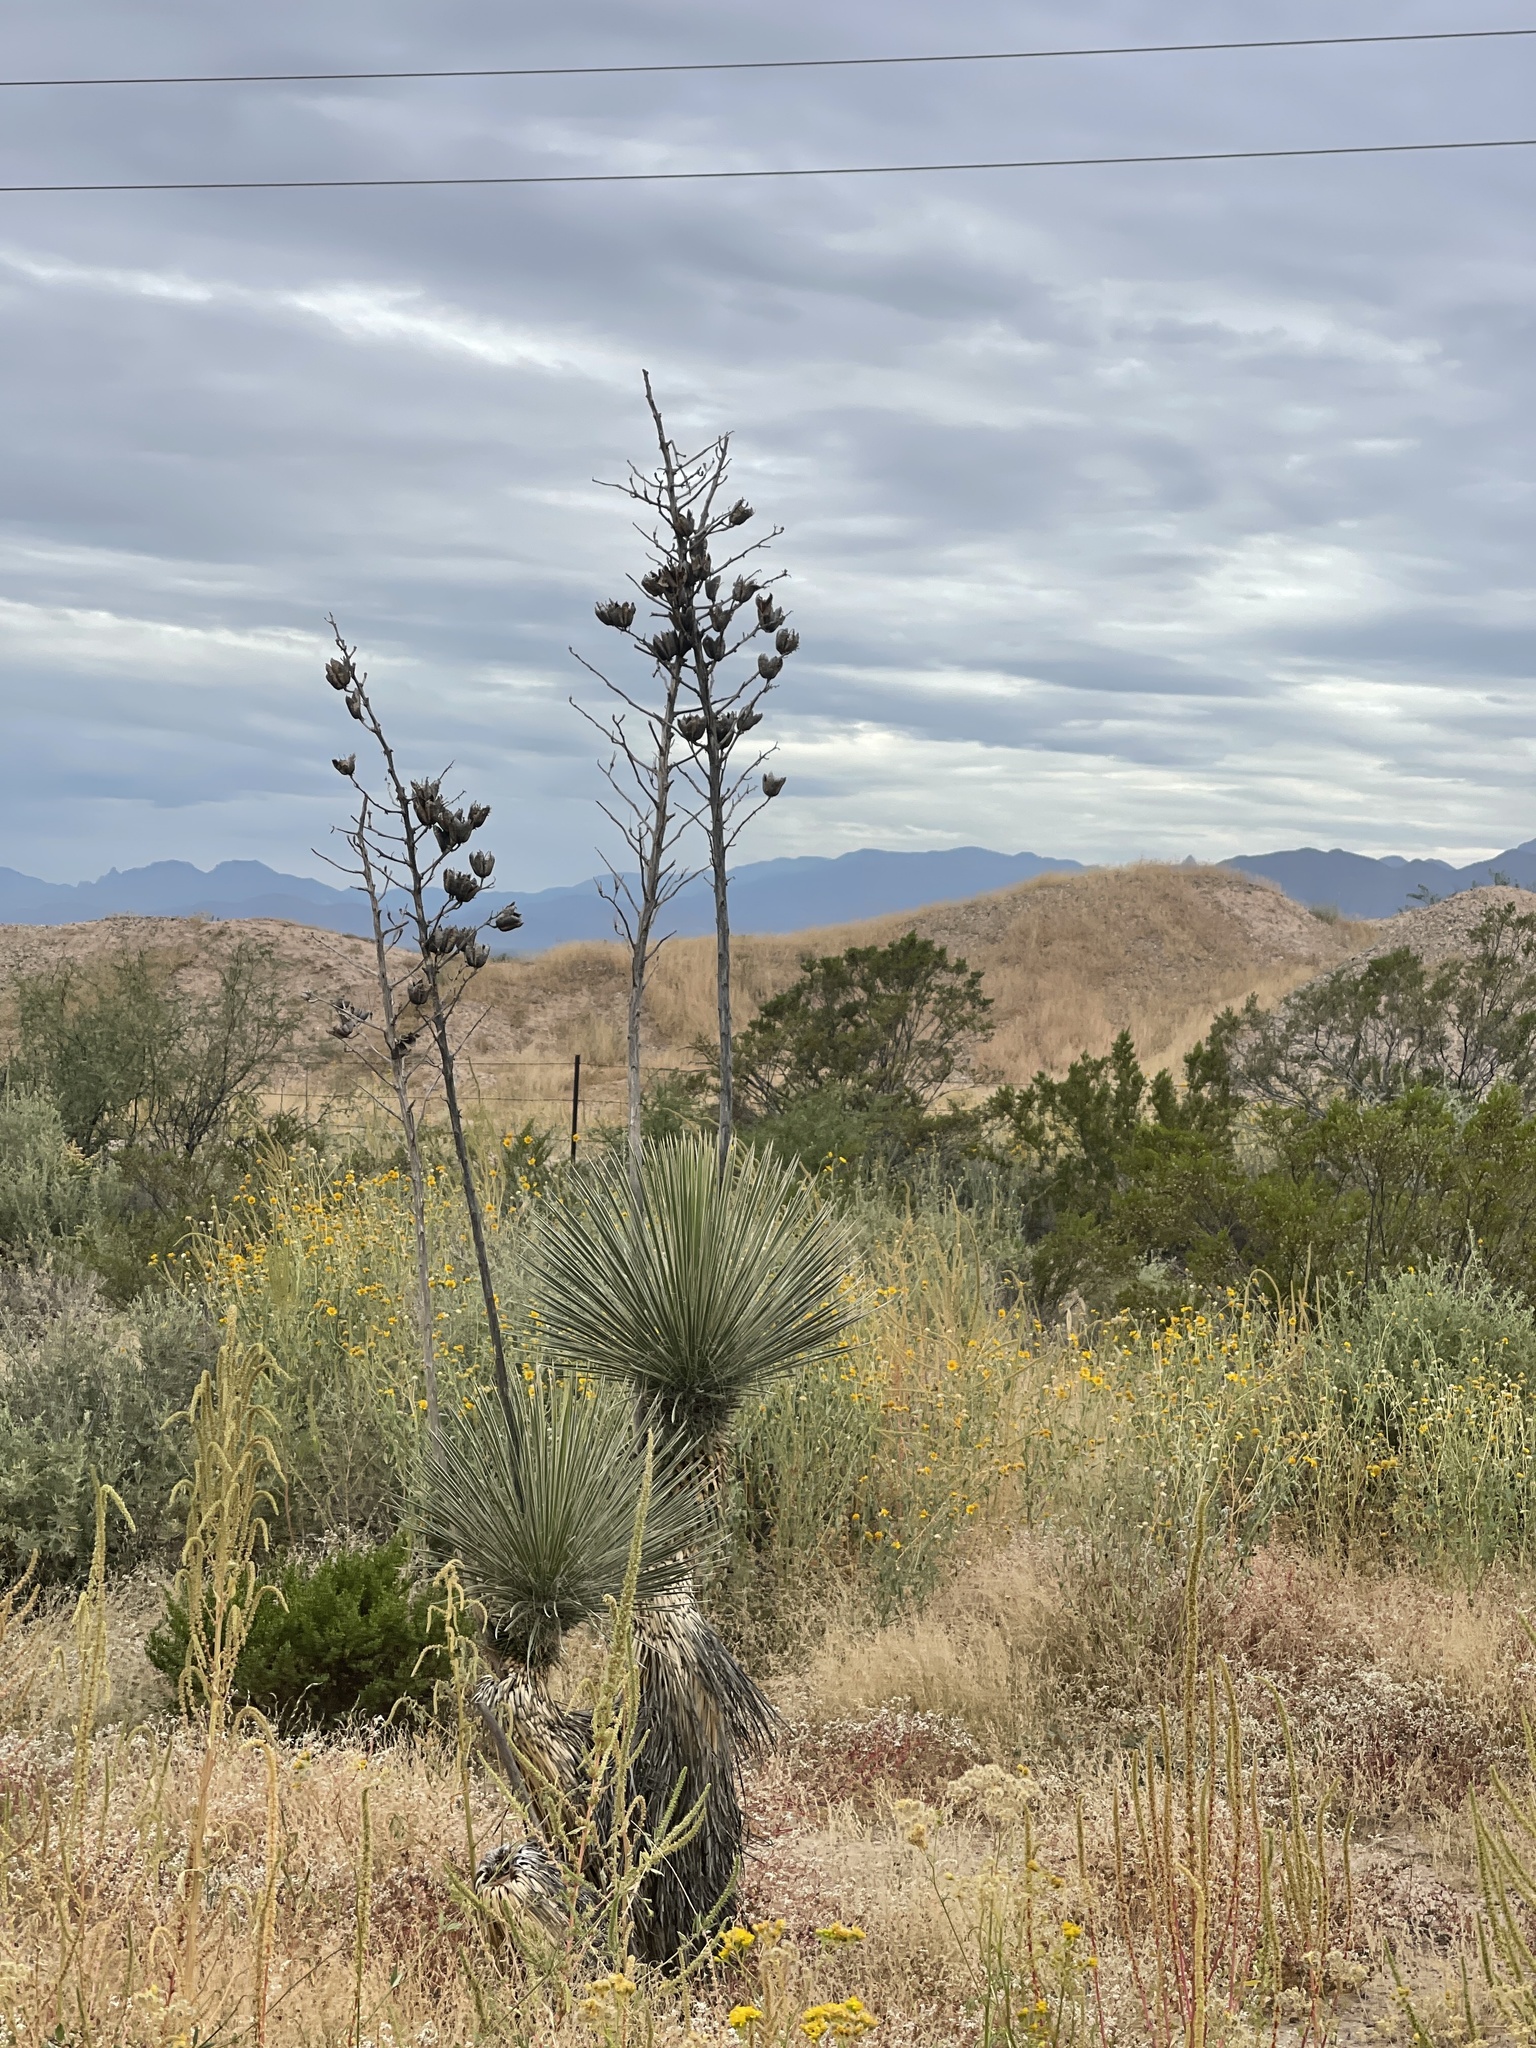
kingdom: Plantae
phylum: Tracheophyta
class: Liliopsida
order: Asparagales
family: Asparagaceae
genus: Yucca
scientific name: Yucca elata
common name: Palmella
